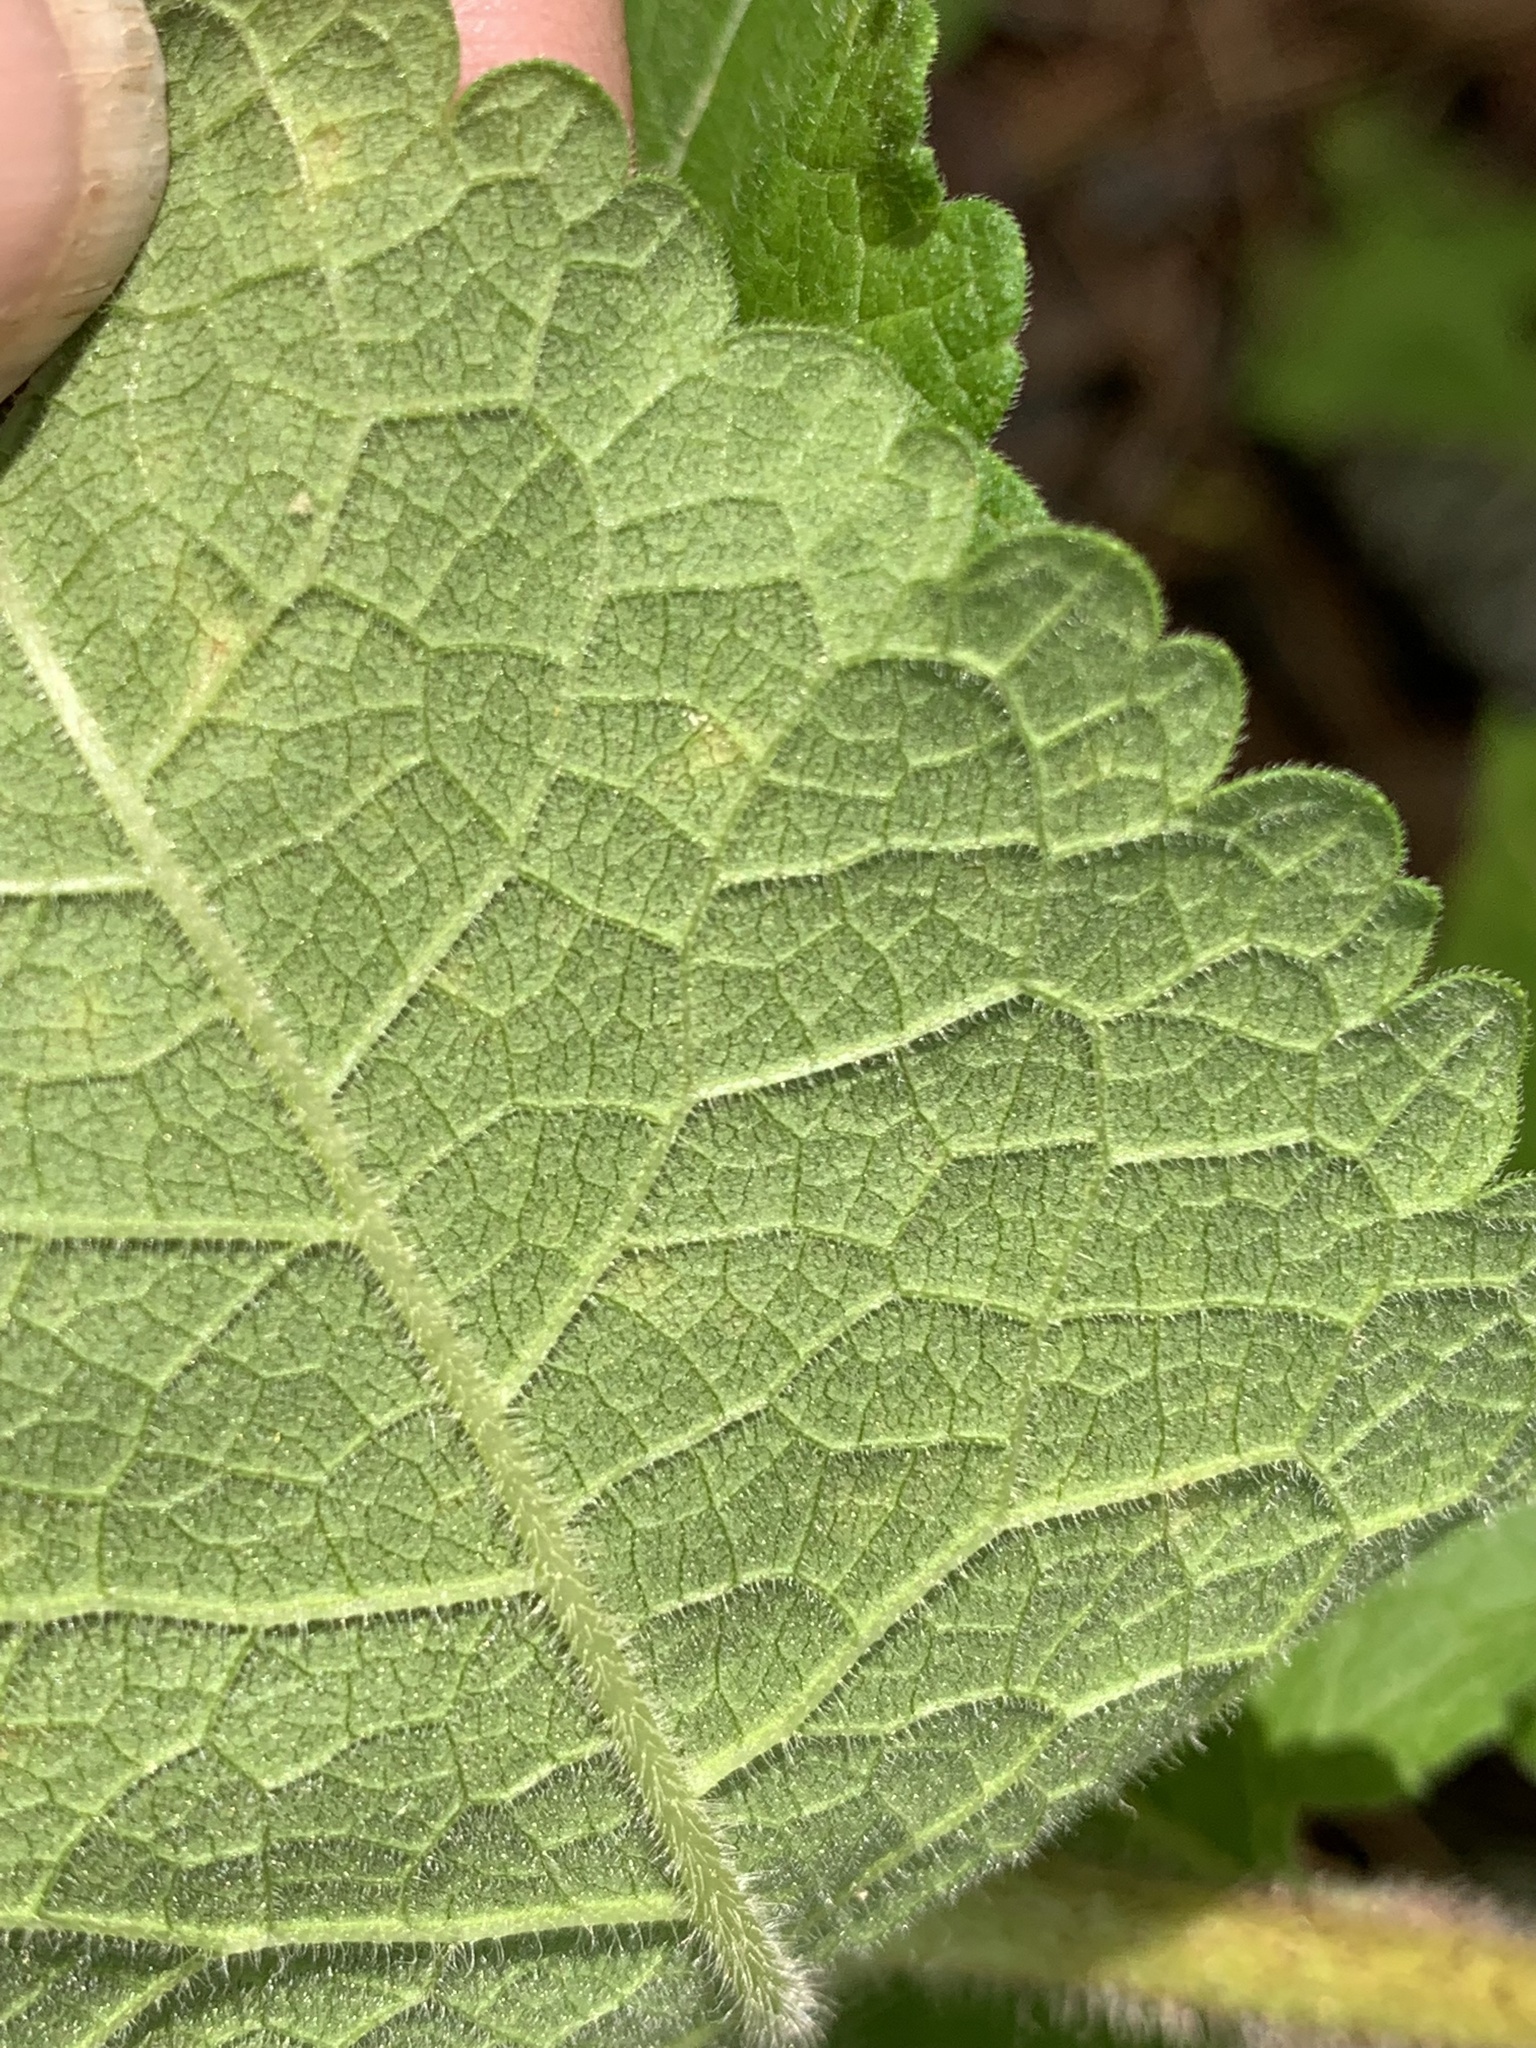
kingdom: Plantae
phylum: Tracheophyta
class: Magnoliopsida
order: Asterales
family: Asteraceae
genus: Berlandiera
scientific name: Berlandiera betonicifolia
